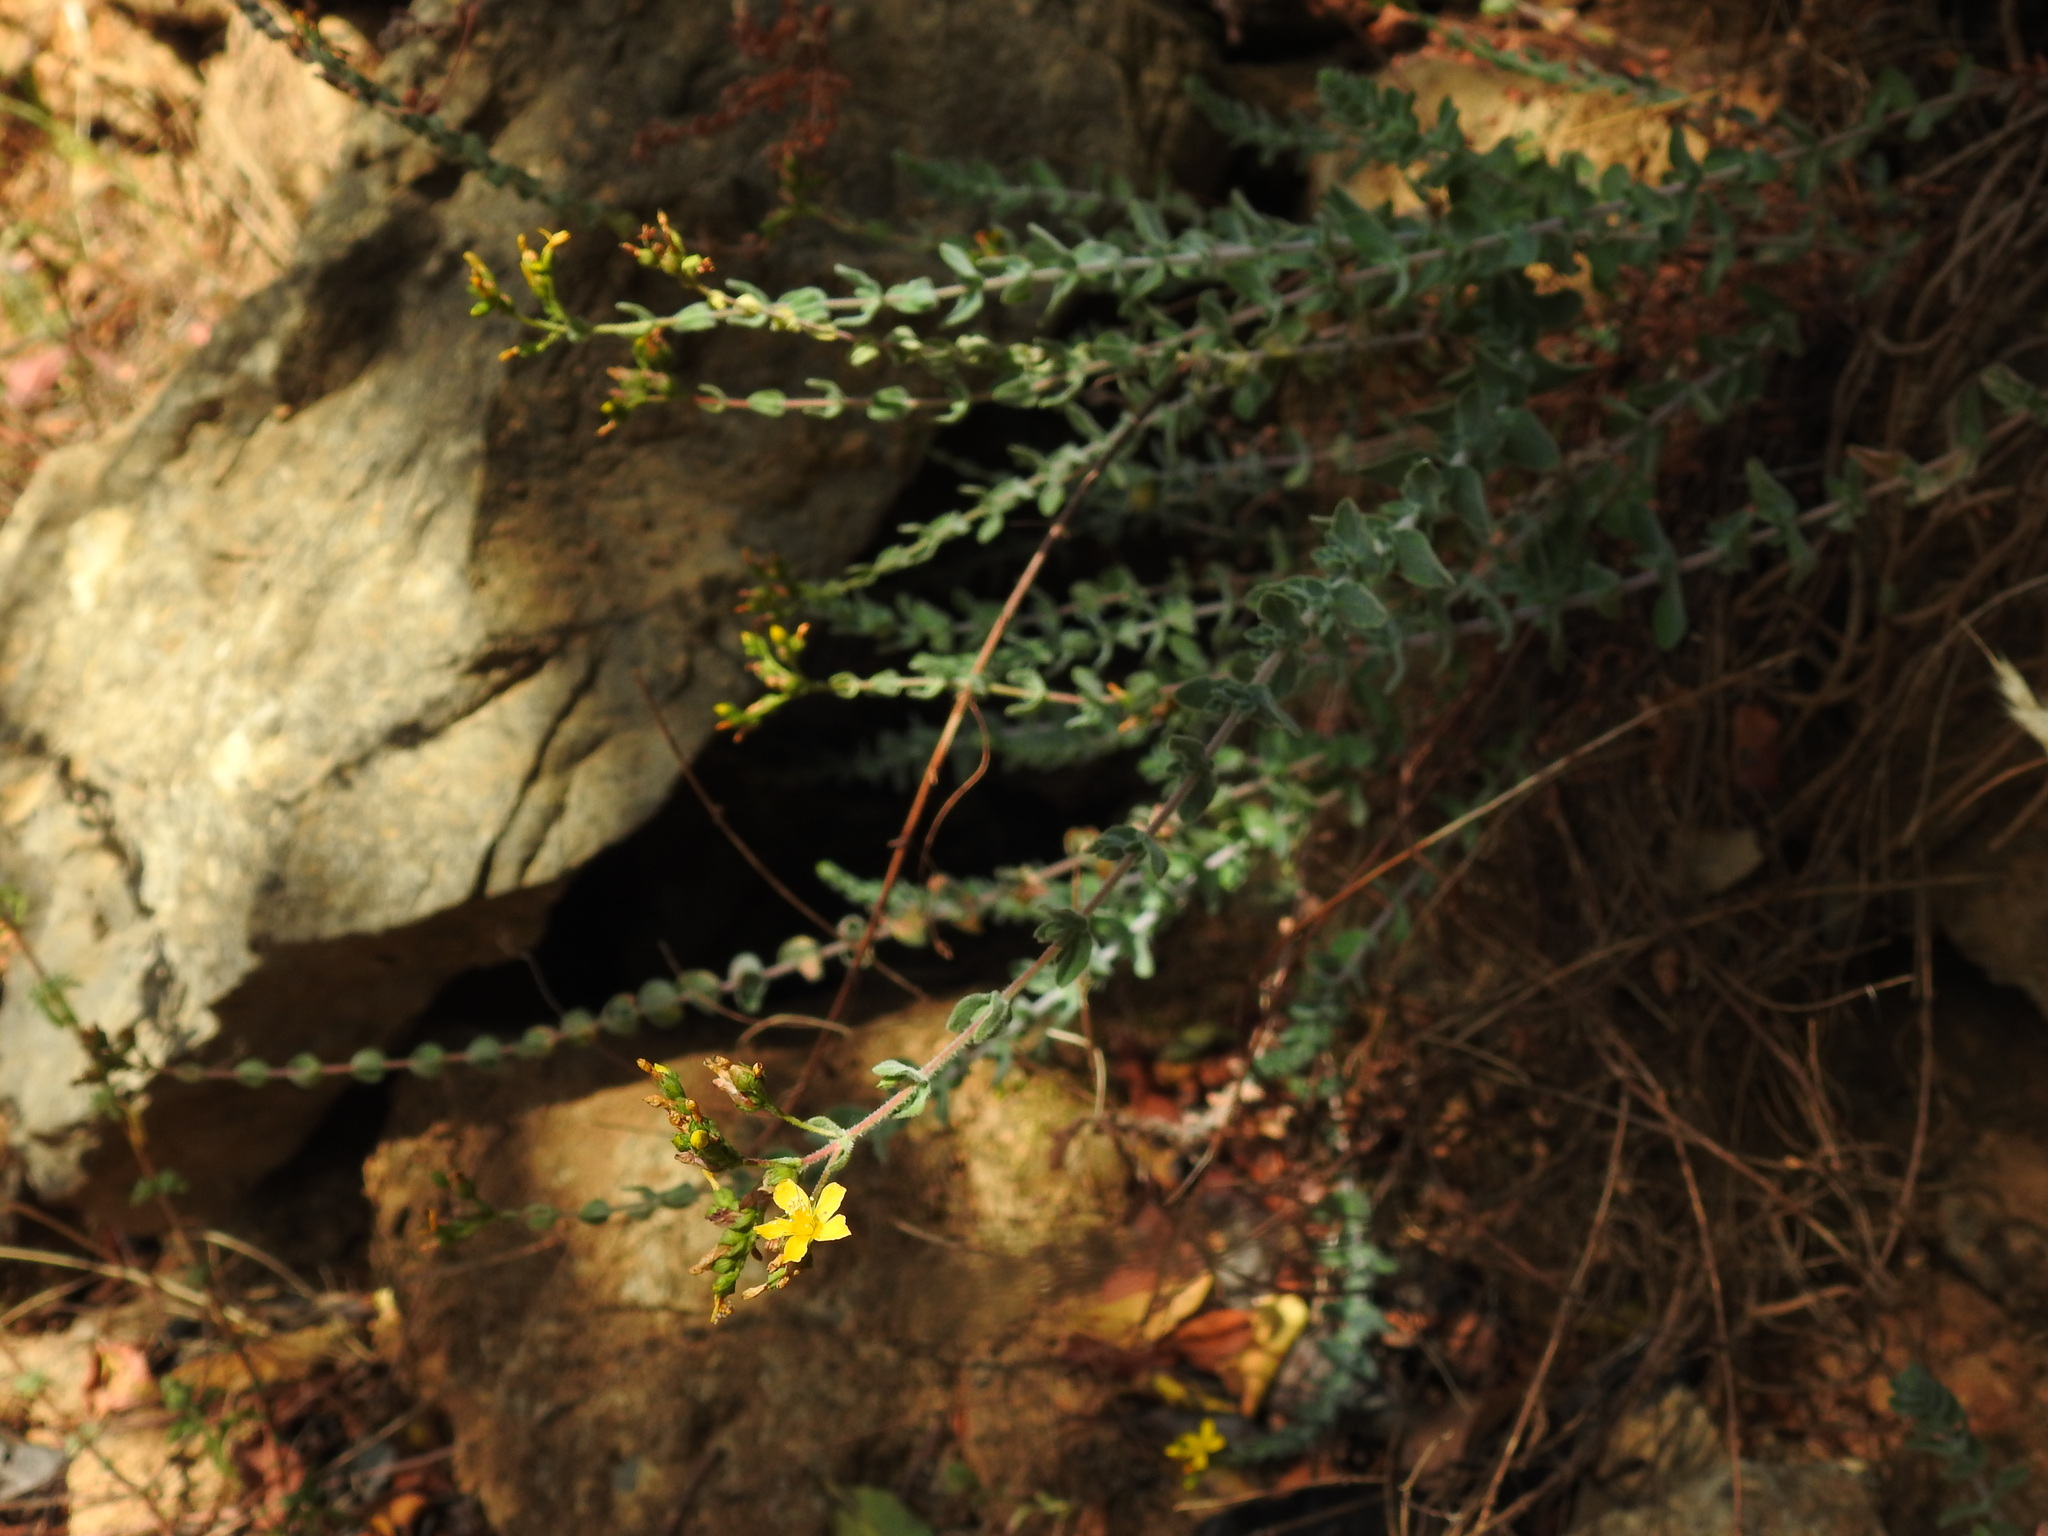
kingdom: Plantae
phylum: Tracheophyta
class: Magnoliopsida
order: Malpighiales
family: Hypericaceae
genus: Hypericum
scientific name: Hypericum tomentosum
